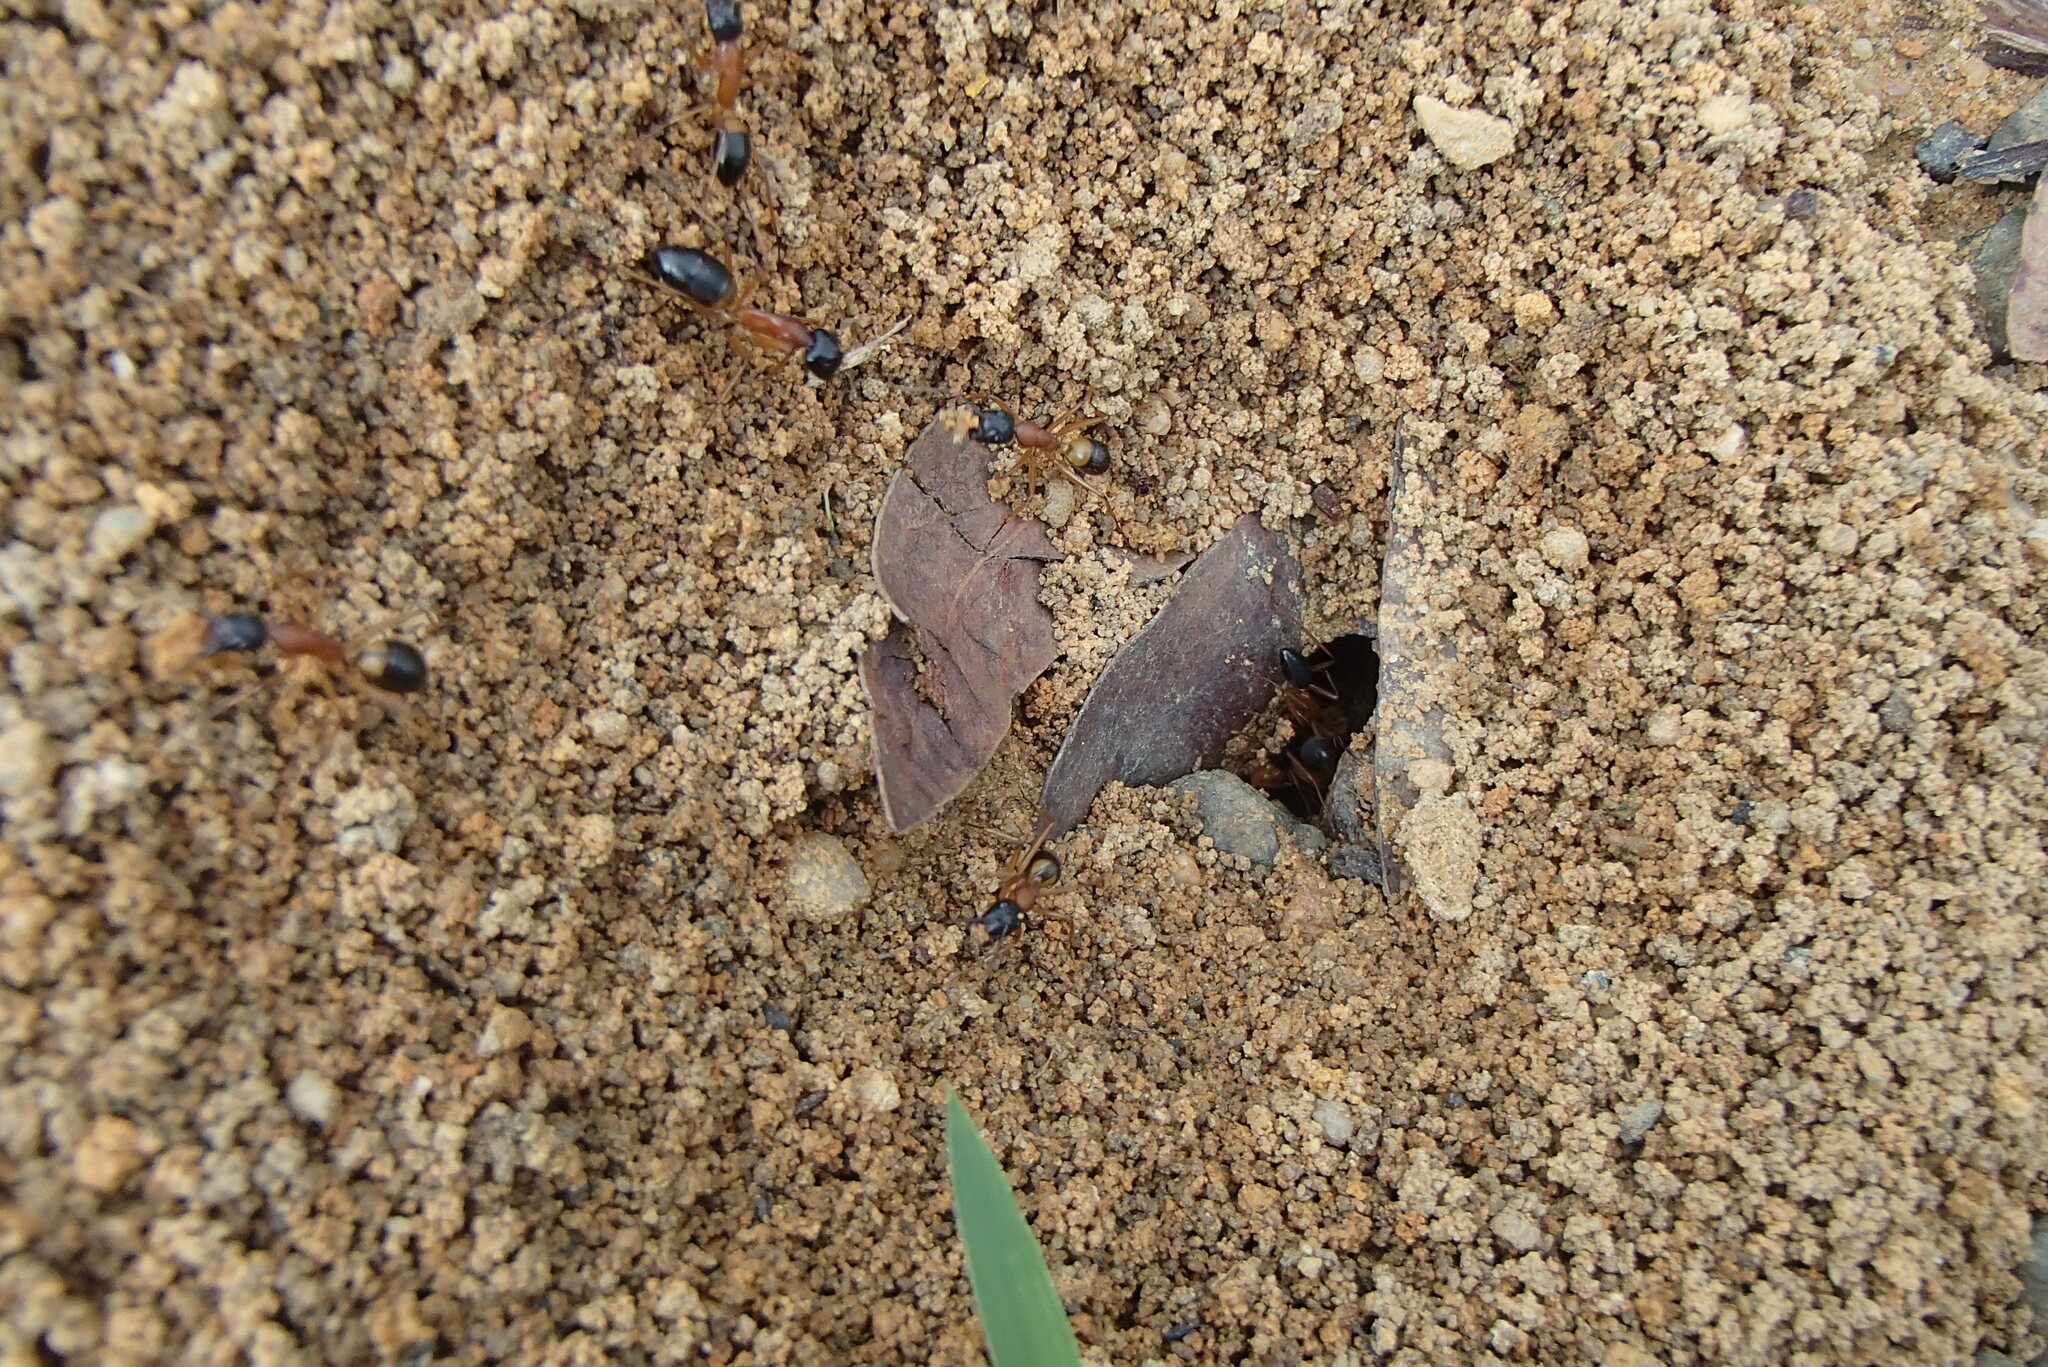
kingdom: Animalia
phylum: Arthropoda
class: Insecta
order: Hymenoptera
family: Formicidae
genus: Camponotus
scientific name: Camponotus consobrinus
